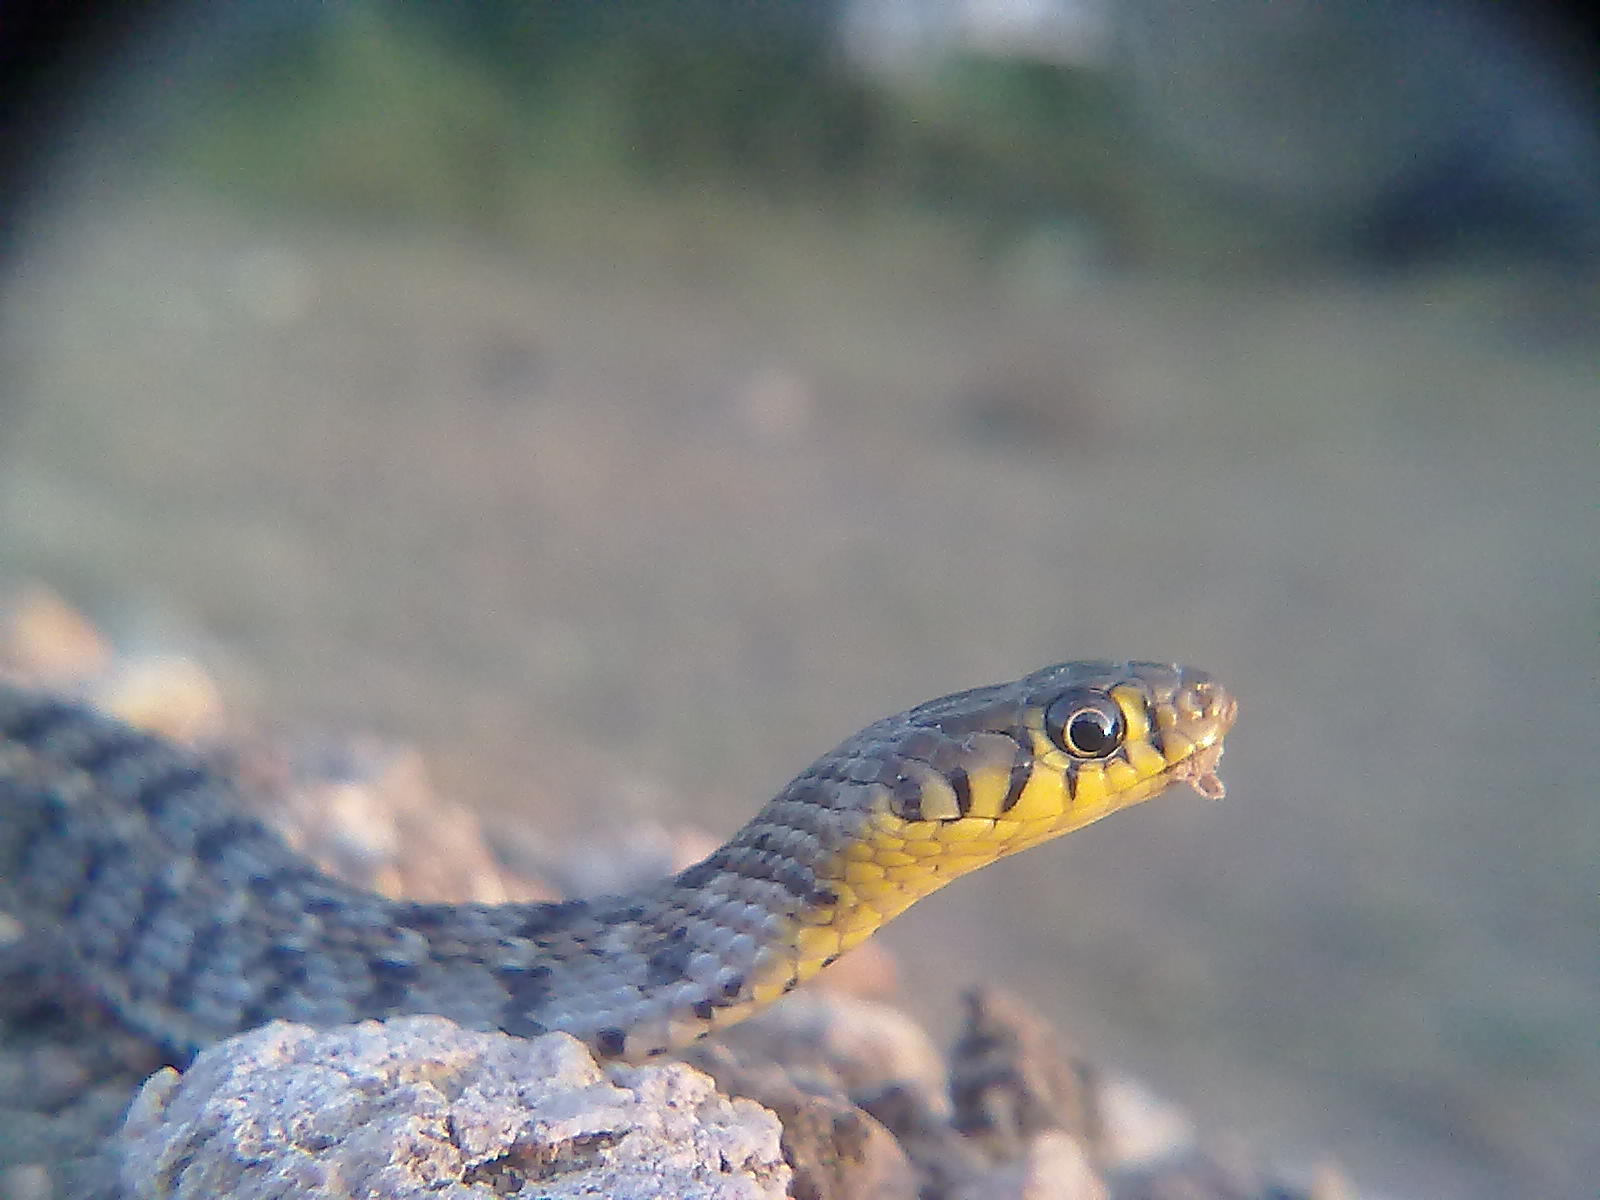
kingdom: Animalia
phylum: Chordata
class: Squamata
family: Colubridae
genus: Amphiesma
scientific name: Amphiesma stolatum
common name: Buff striped keelback
